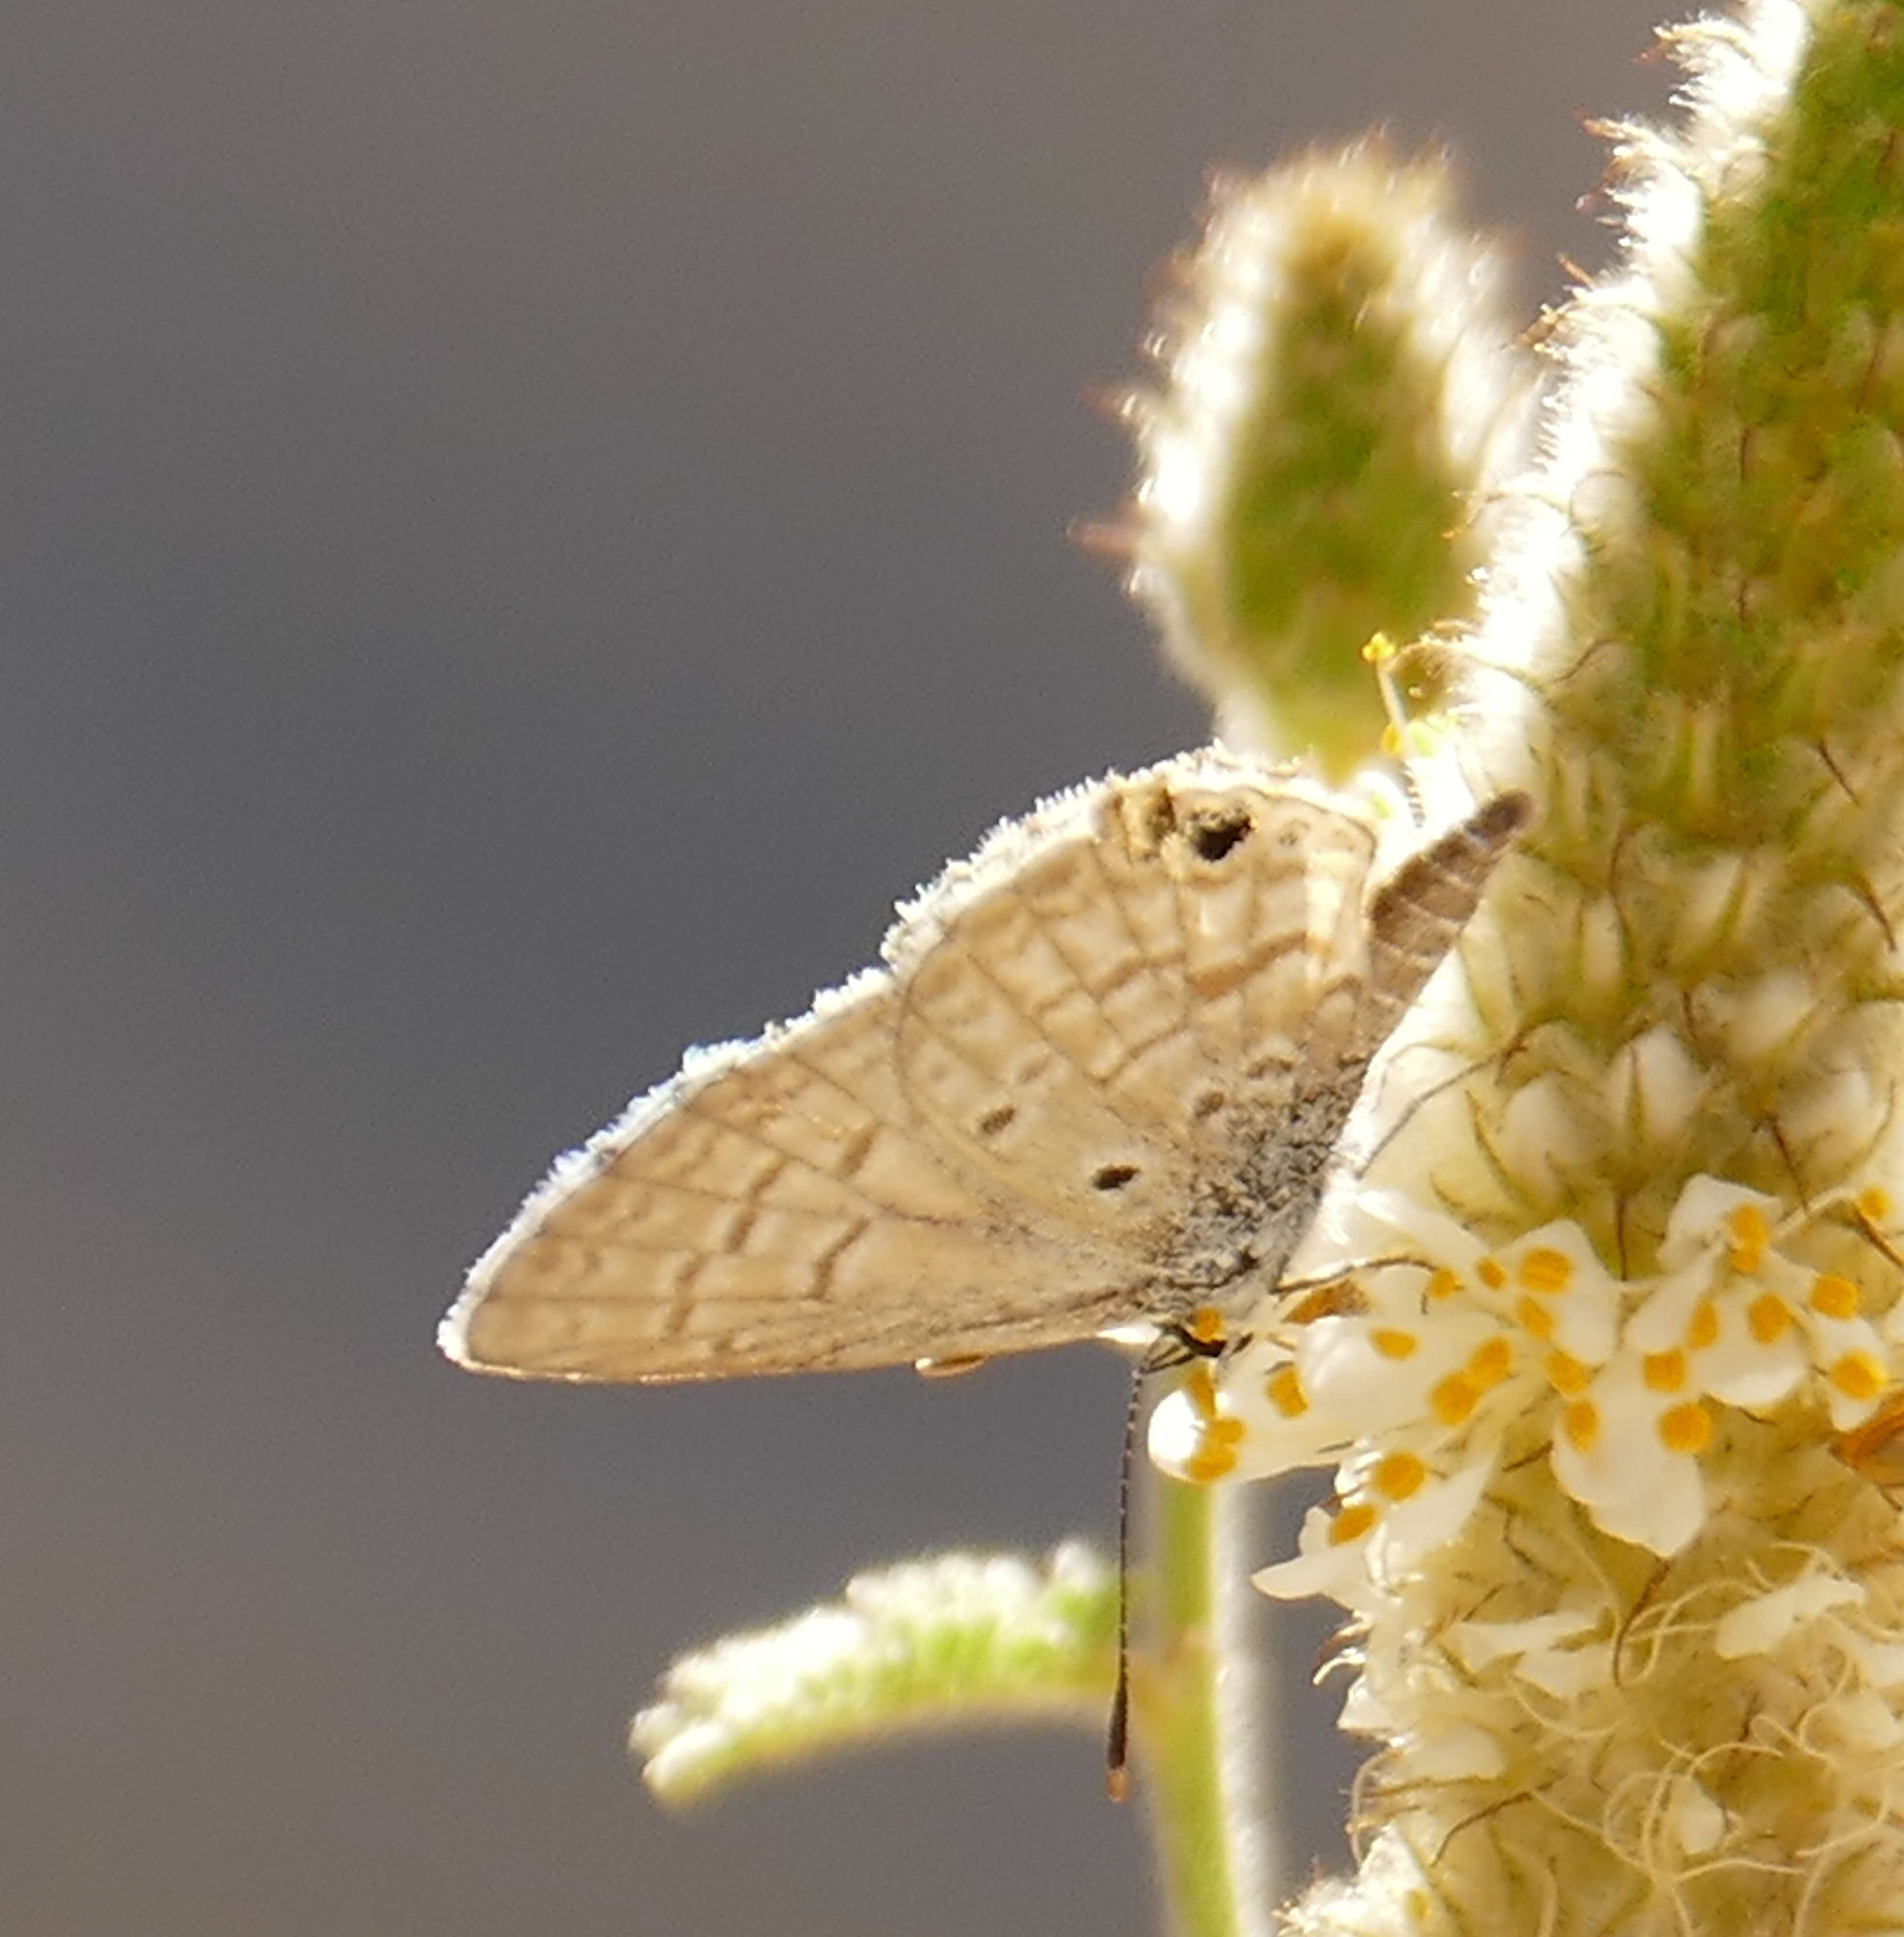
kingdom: Animalia
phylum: Arthropoda
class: Insecta
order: Lepidoptera
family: Lycaenidae
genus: Hemiargus
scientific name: Hemiargus ceraunus
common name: Ceraunus blue
